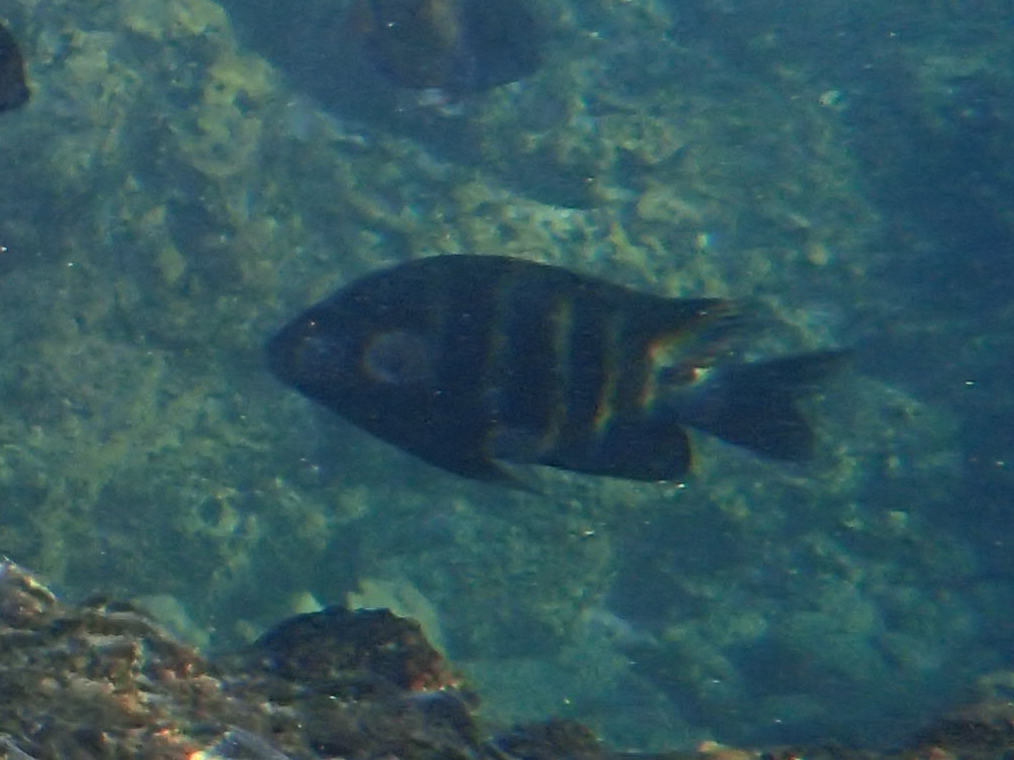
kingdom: Animalia
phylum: Chordata
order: Perciformes
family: Pomacentridae
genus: Abudefduf
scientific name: Abudefduf sordidus
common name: Blackspot sergeant
